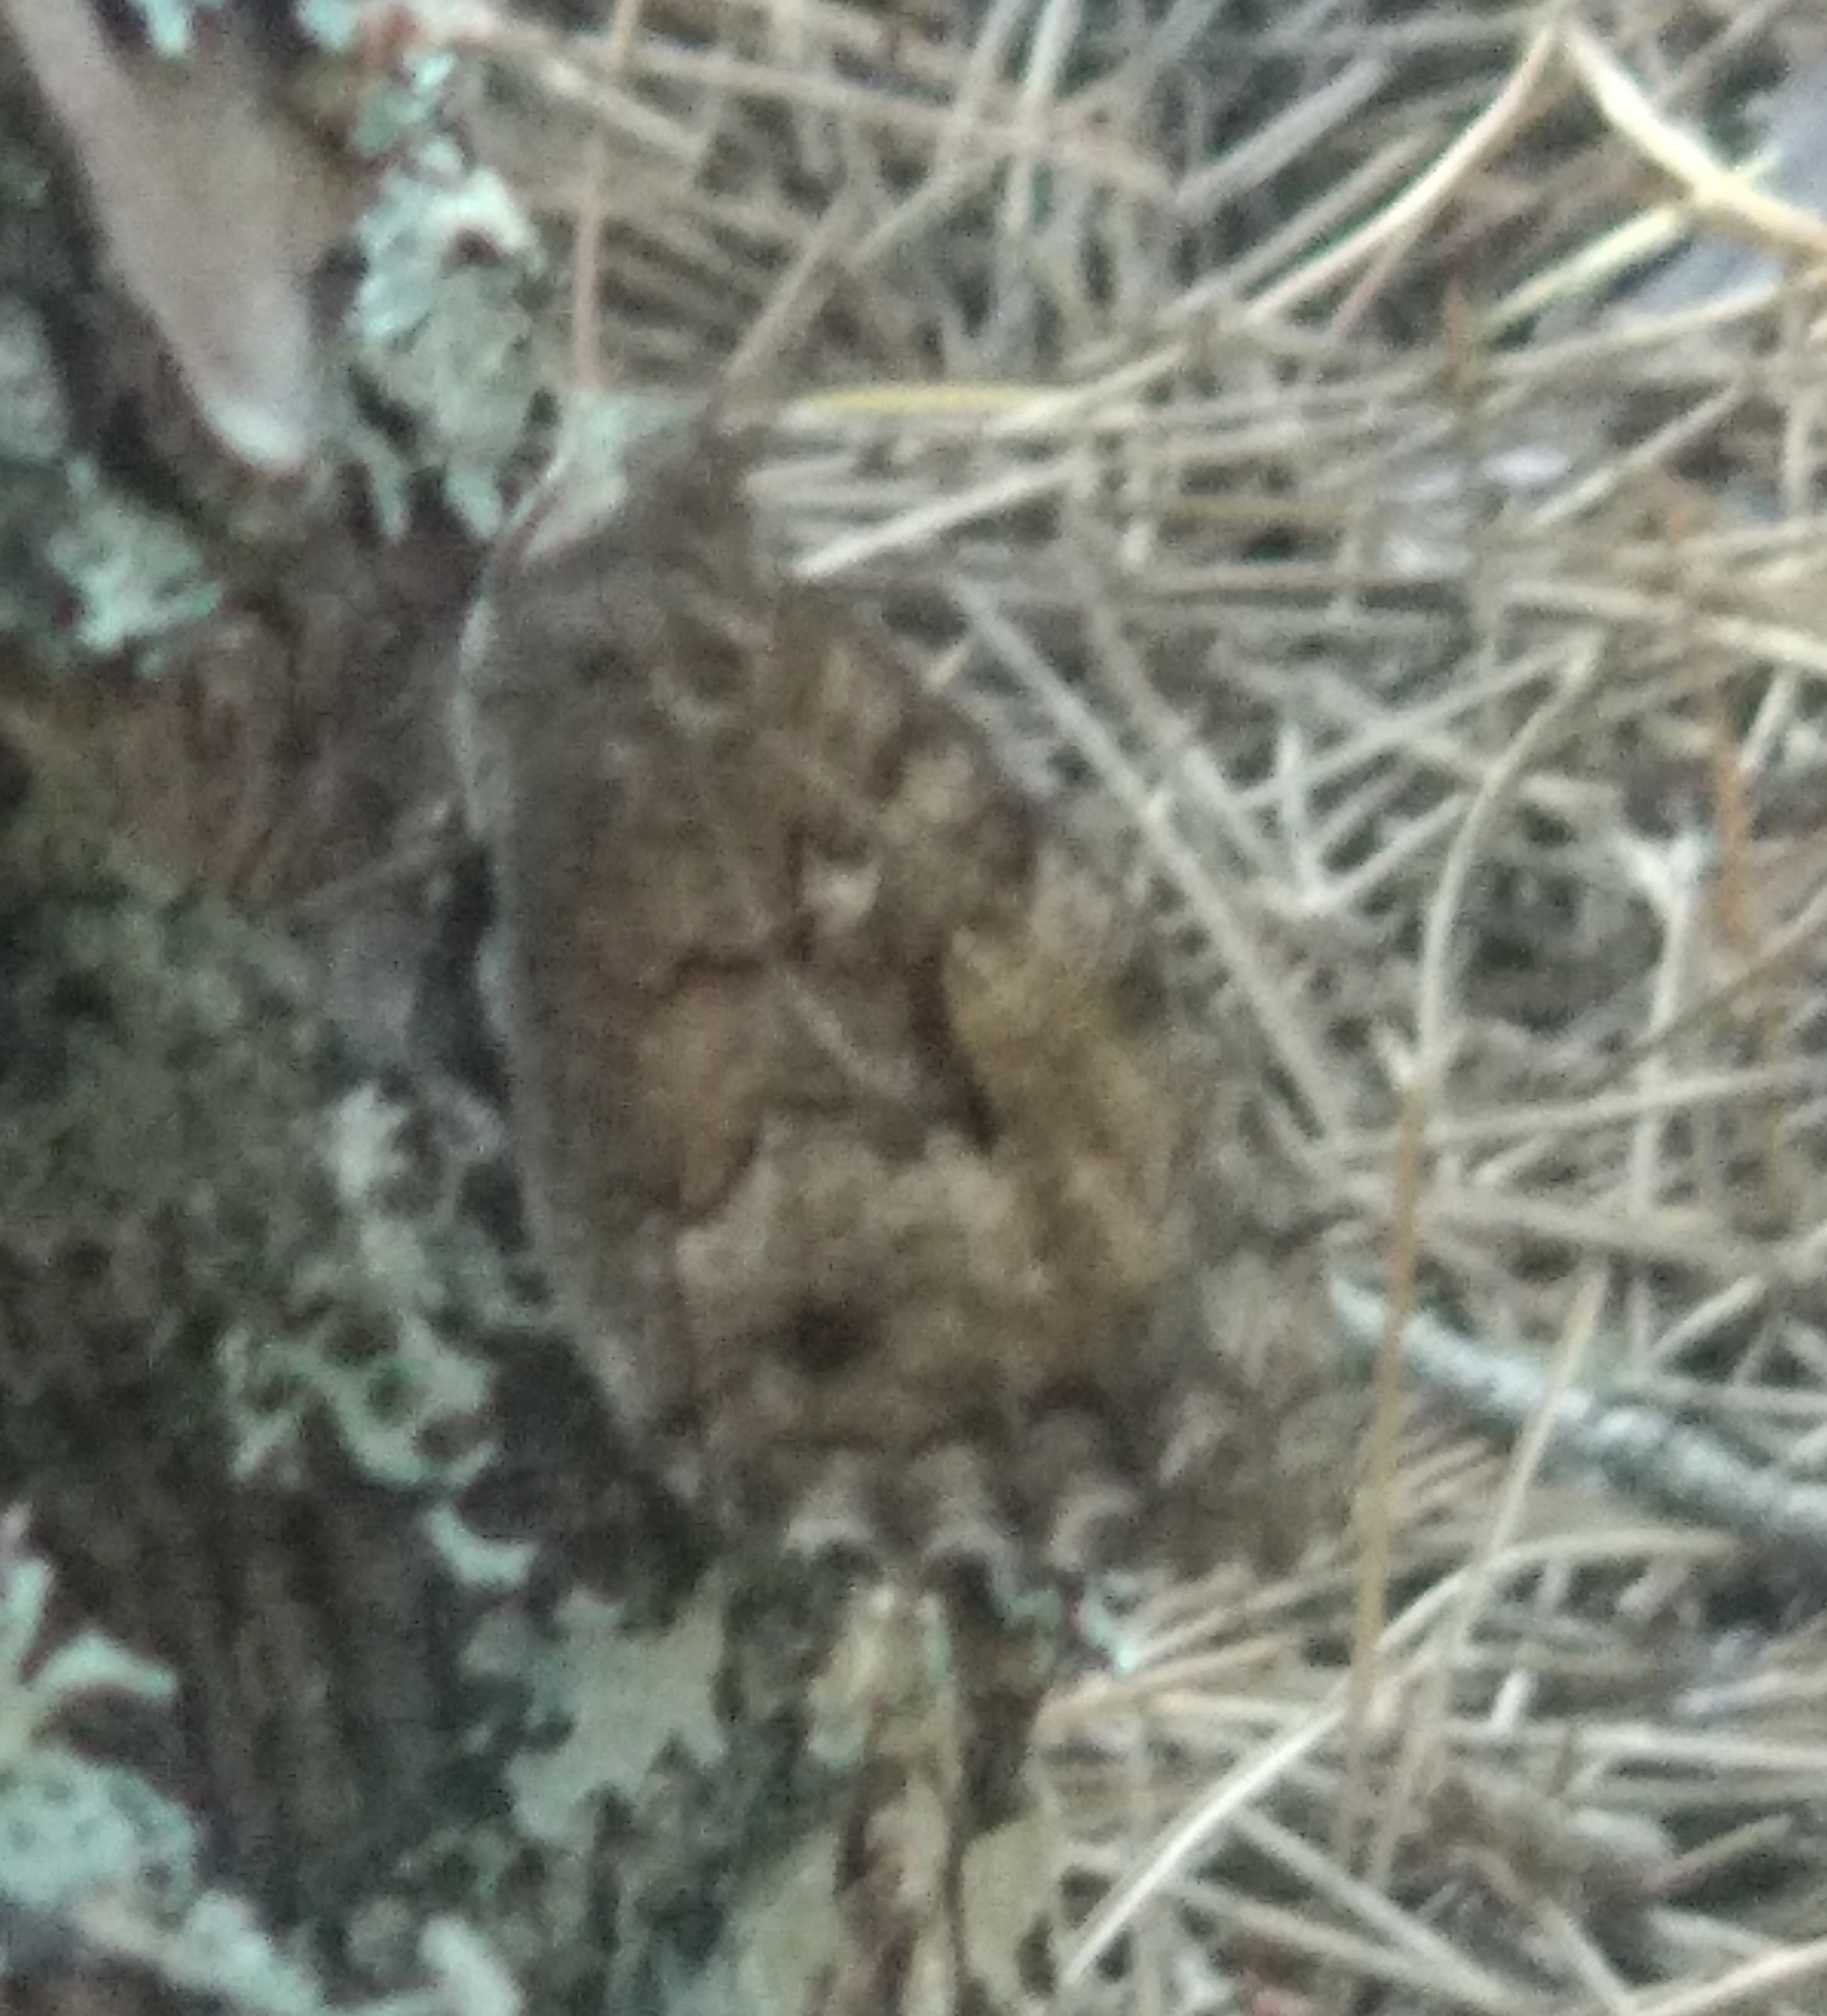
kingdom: Animalia
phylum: Arthropoda
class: Insecta
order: Lepidoptera
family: Nymphalidae
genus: Hipparchia
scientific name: Hipparchia semele
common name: Grayling
